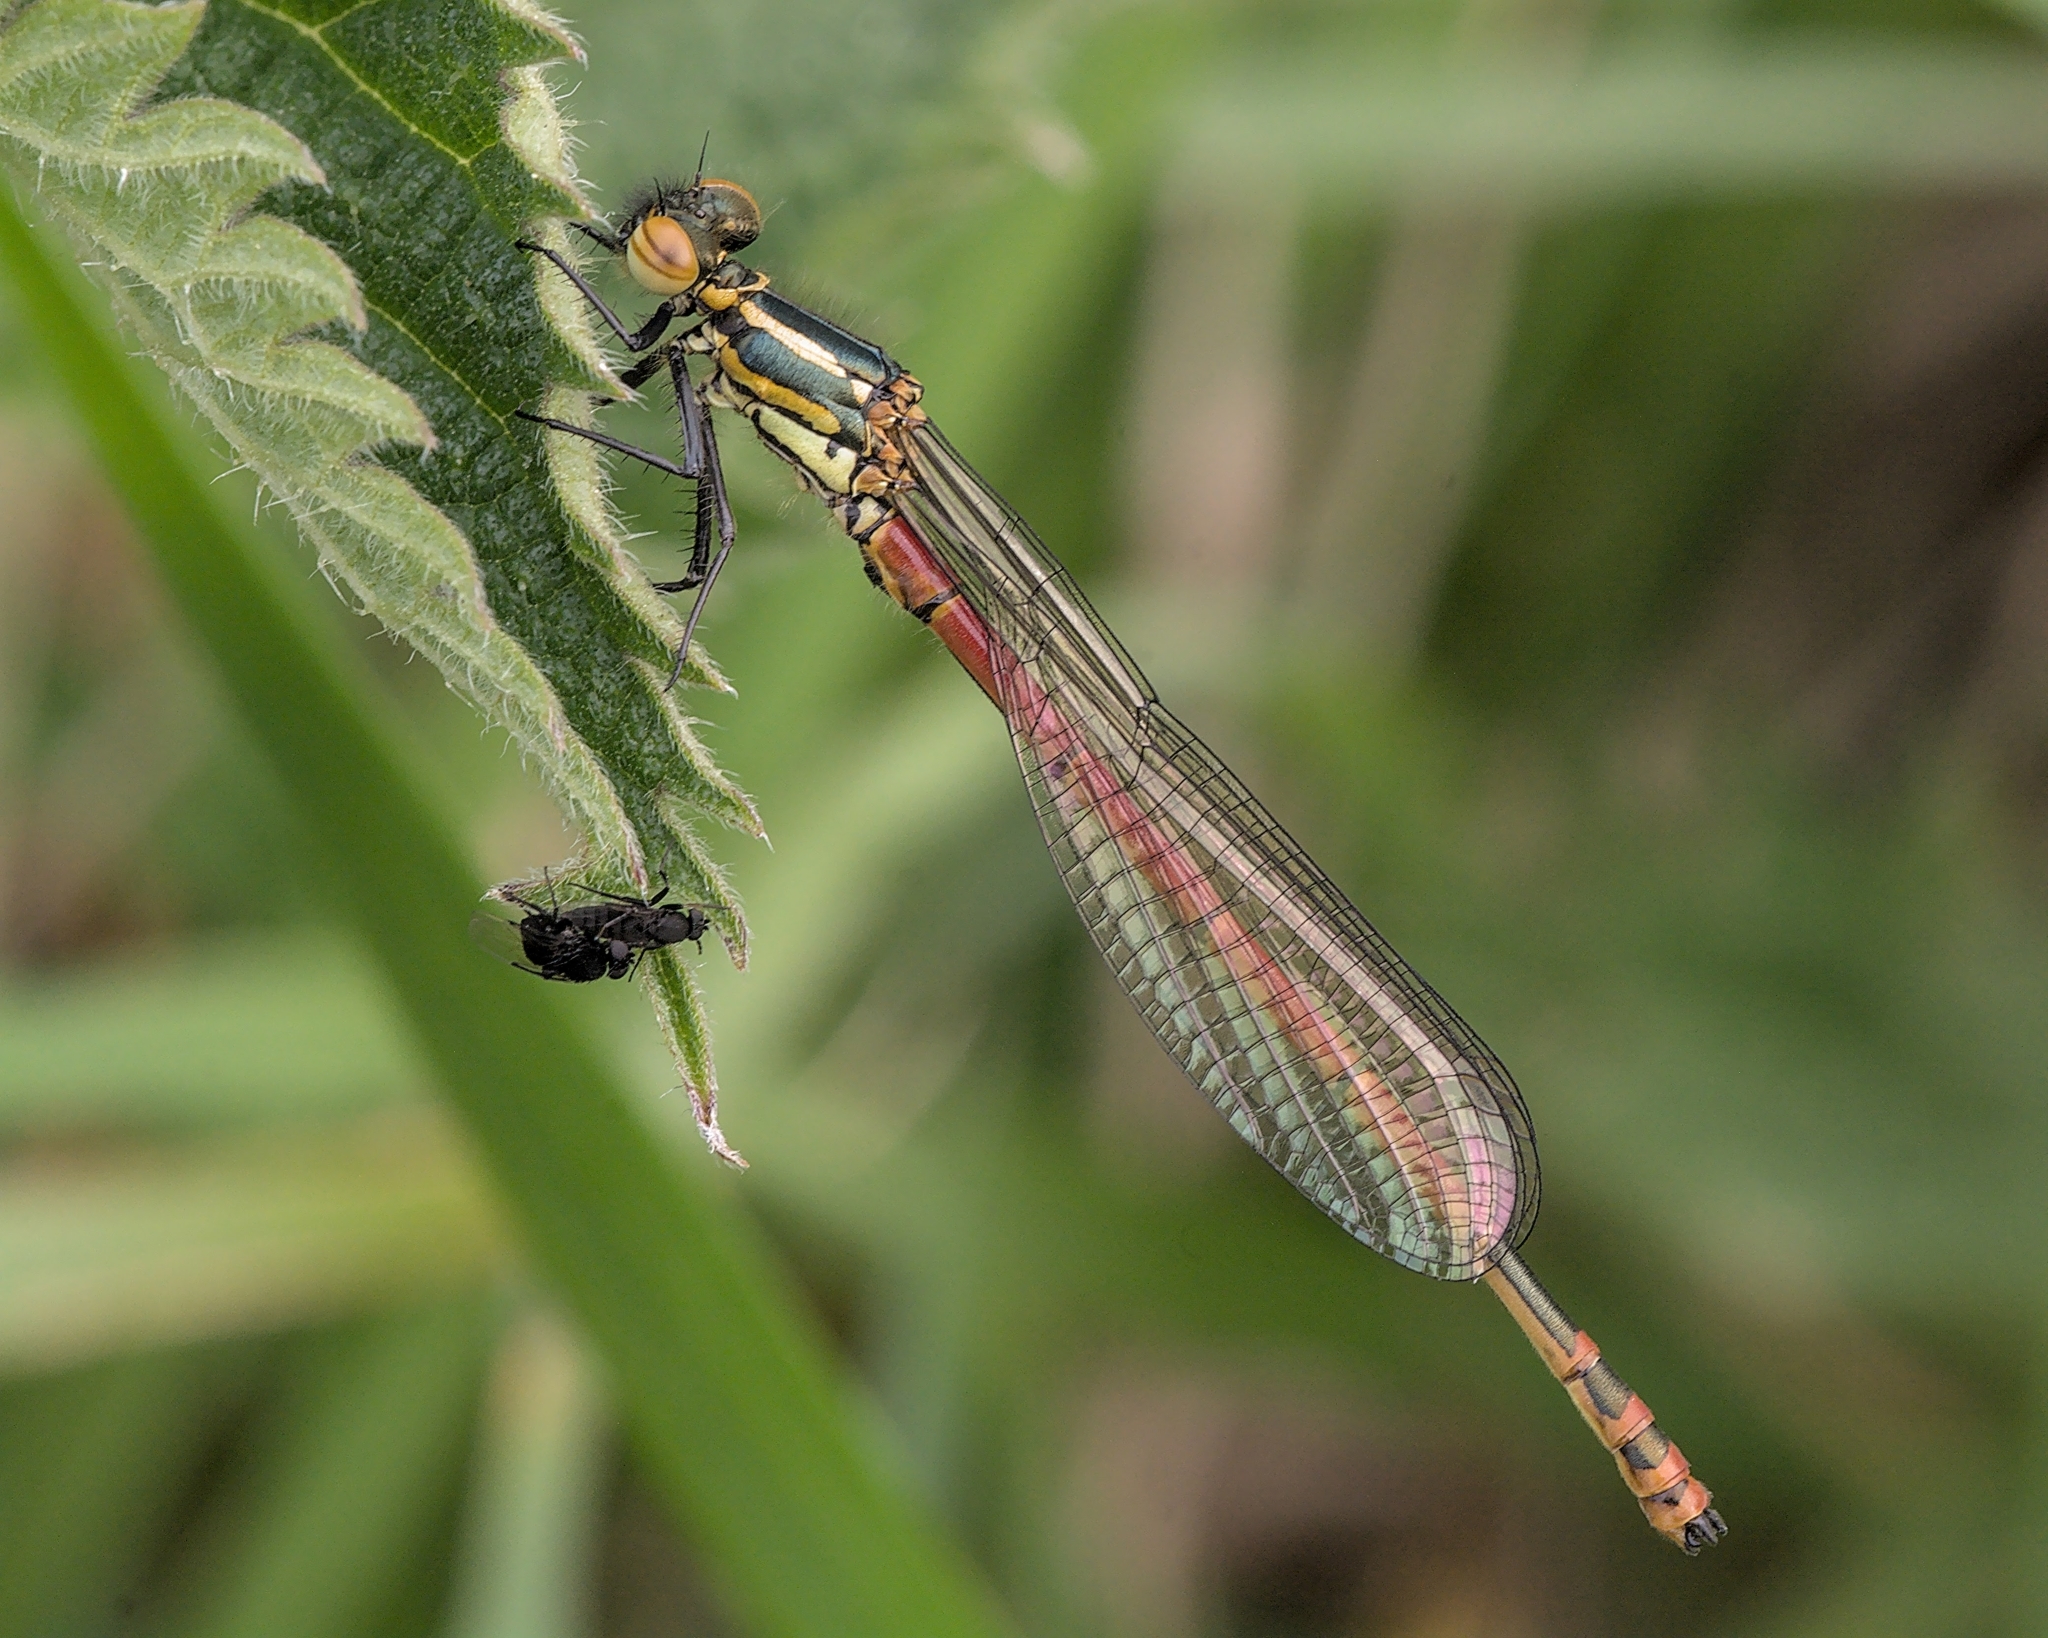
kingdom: Animalia
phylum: Arthropoda
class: Insecta
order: Odonata
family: Coenagrionidae
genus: Pyrrhosoma
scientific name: Pyrrhosoma nymphula
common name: Large red damsel
